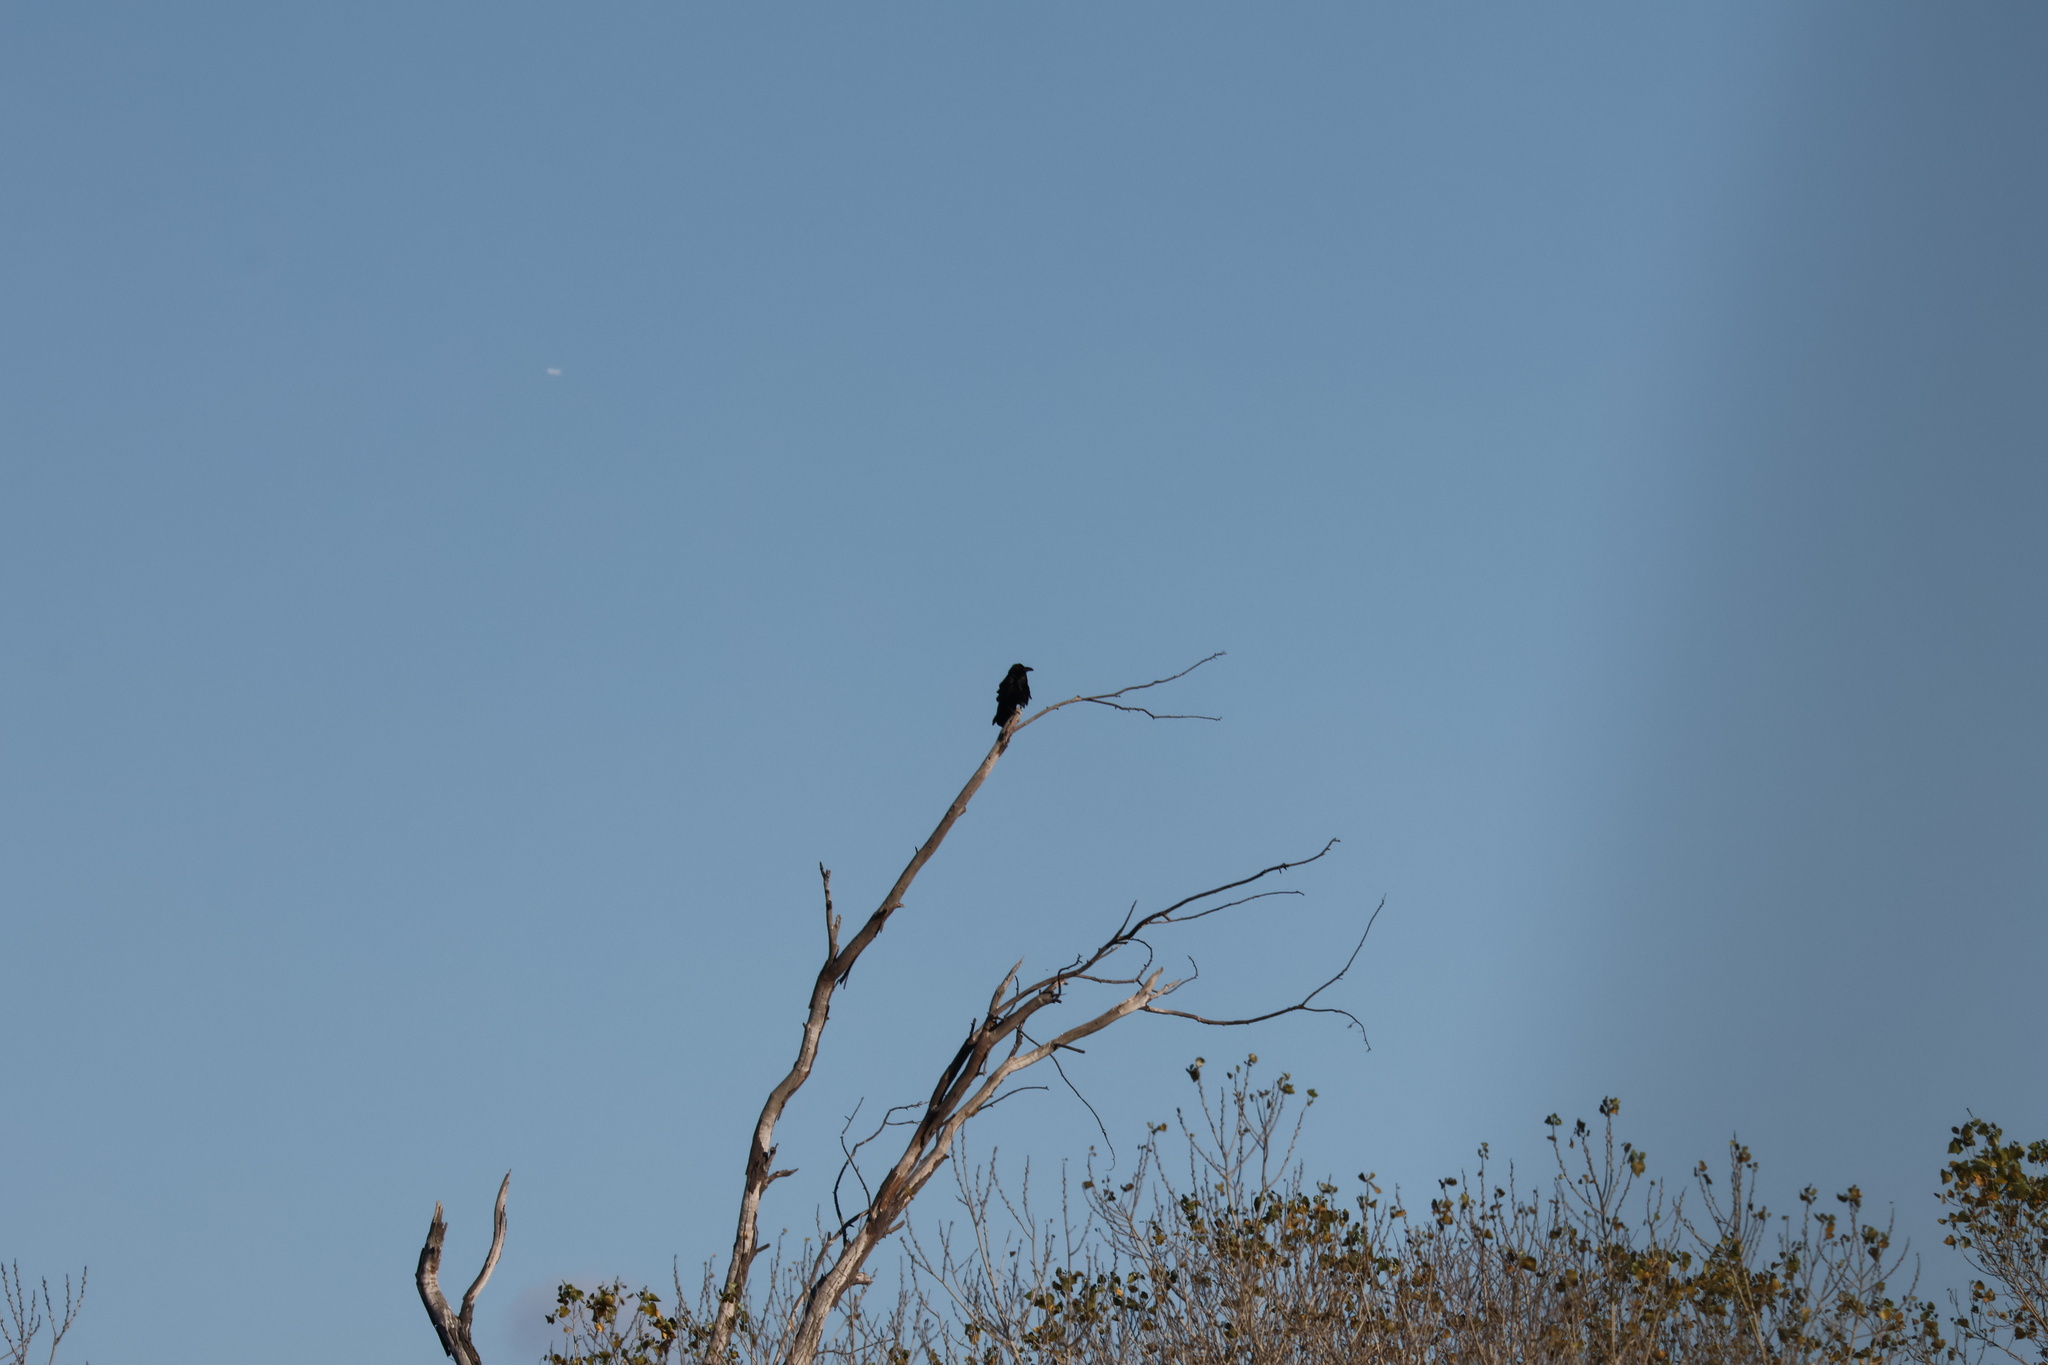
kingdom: Animalia
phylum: Chordata
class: Aves
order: Passeriformes
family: Corvidae
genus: Corvus
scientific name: Corvus corax
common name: Common raven
